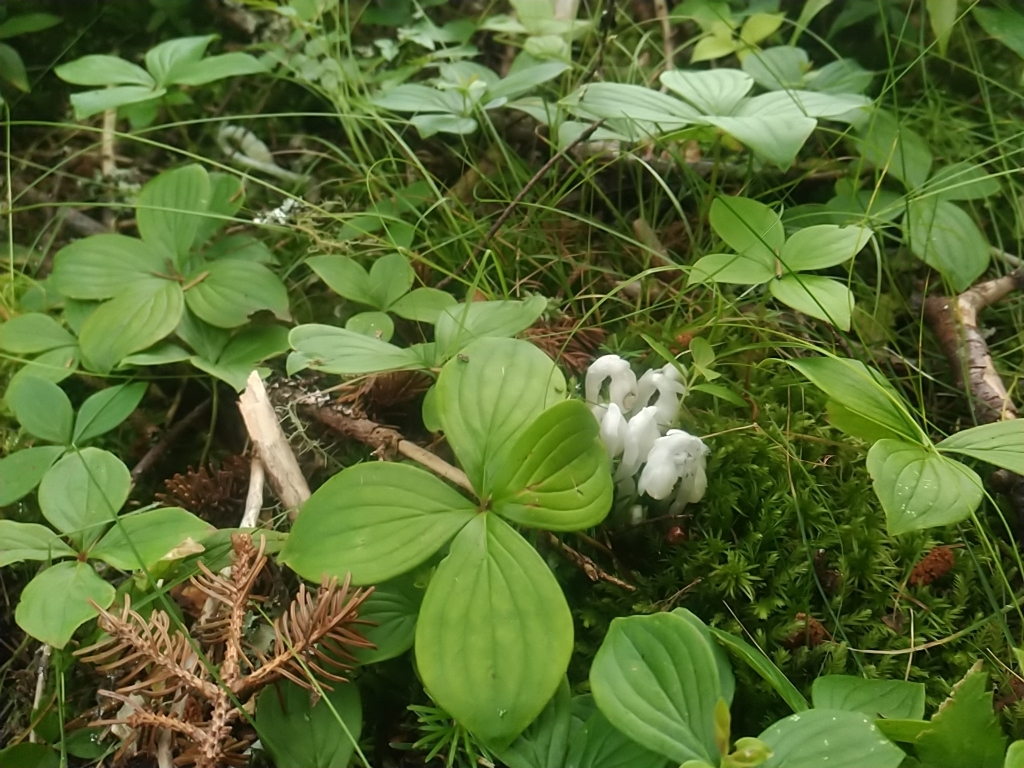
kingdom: Plantae
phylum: Tracheophyta
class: Magnoliopsida
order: Ericales
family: Ericaceae
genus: Monotropa
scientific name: Monotropa uniflora
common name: Convulsion root
